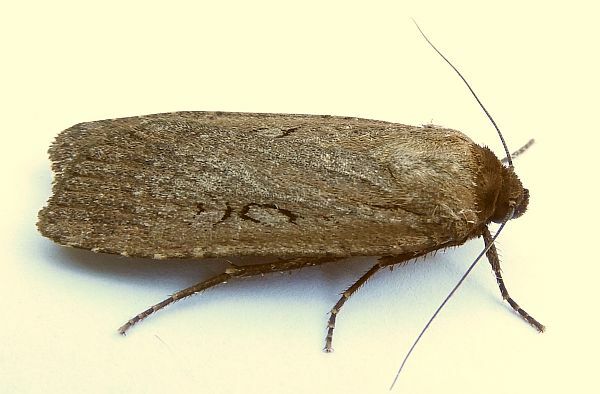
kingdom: Animalia
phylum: Arthropoda
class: Insecta
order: Lepidoptera
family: Noctuidae
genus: Spaelotis
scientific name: Spaelotis clandestina
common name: Clandestine dart
